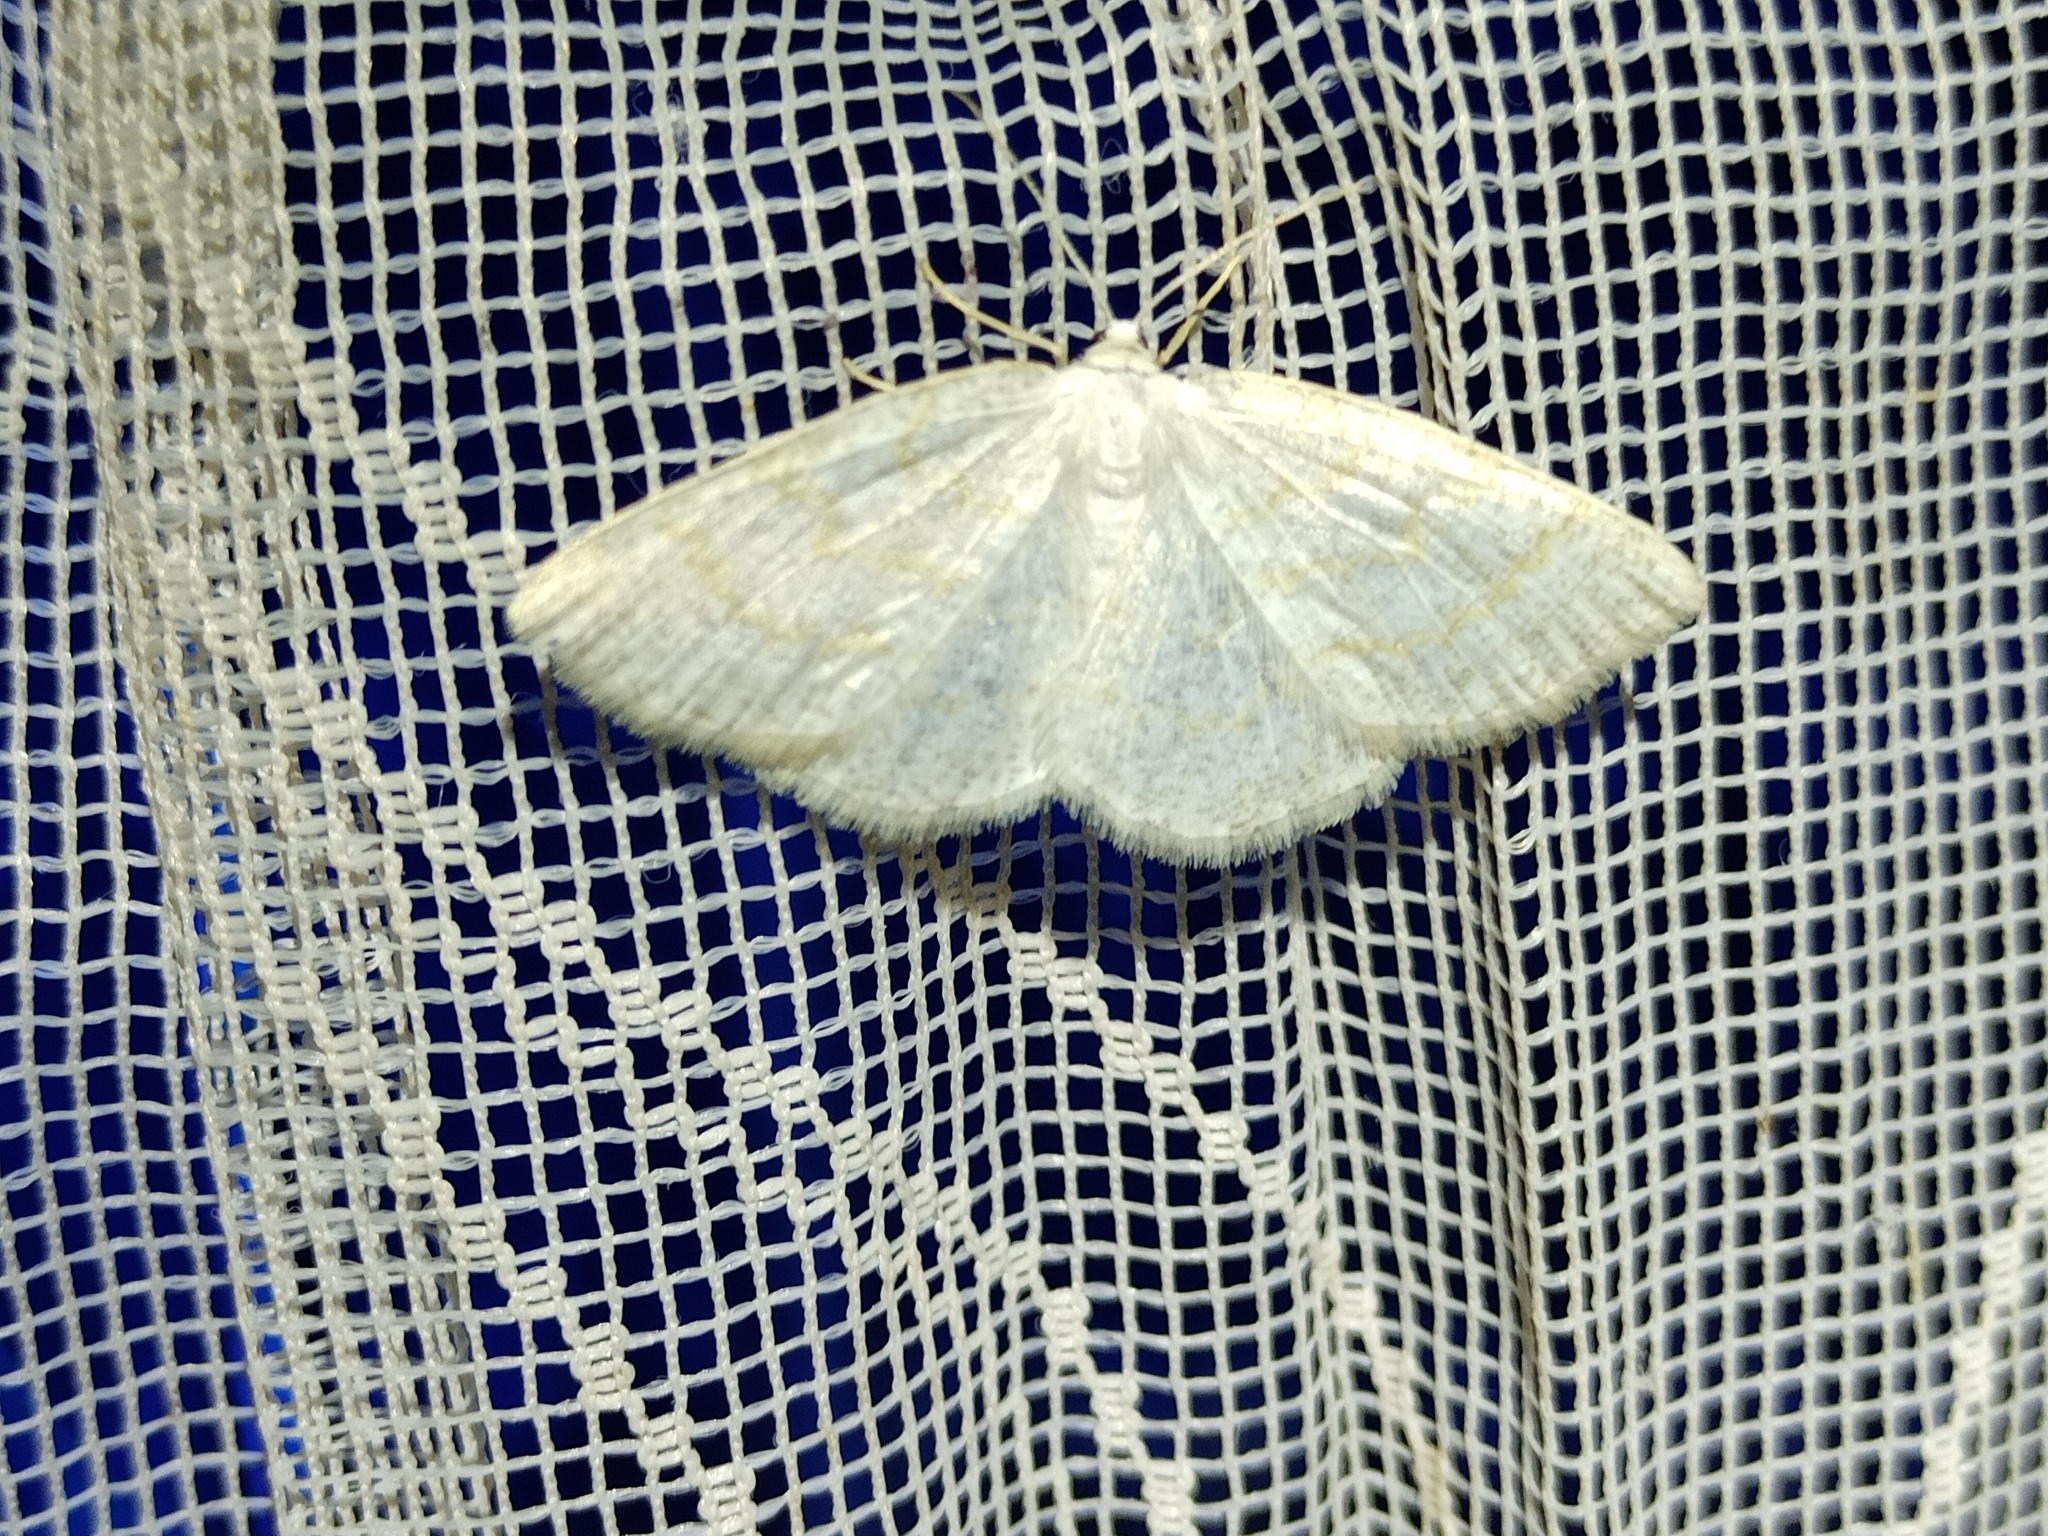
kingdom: Animalia
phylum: Arthropoda
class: Insecta
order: Lepidoptera
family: Geometridae
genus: Cabera
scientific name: Cabera exanthemata
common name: Common wave
